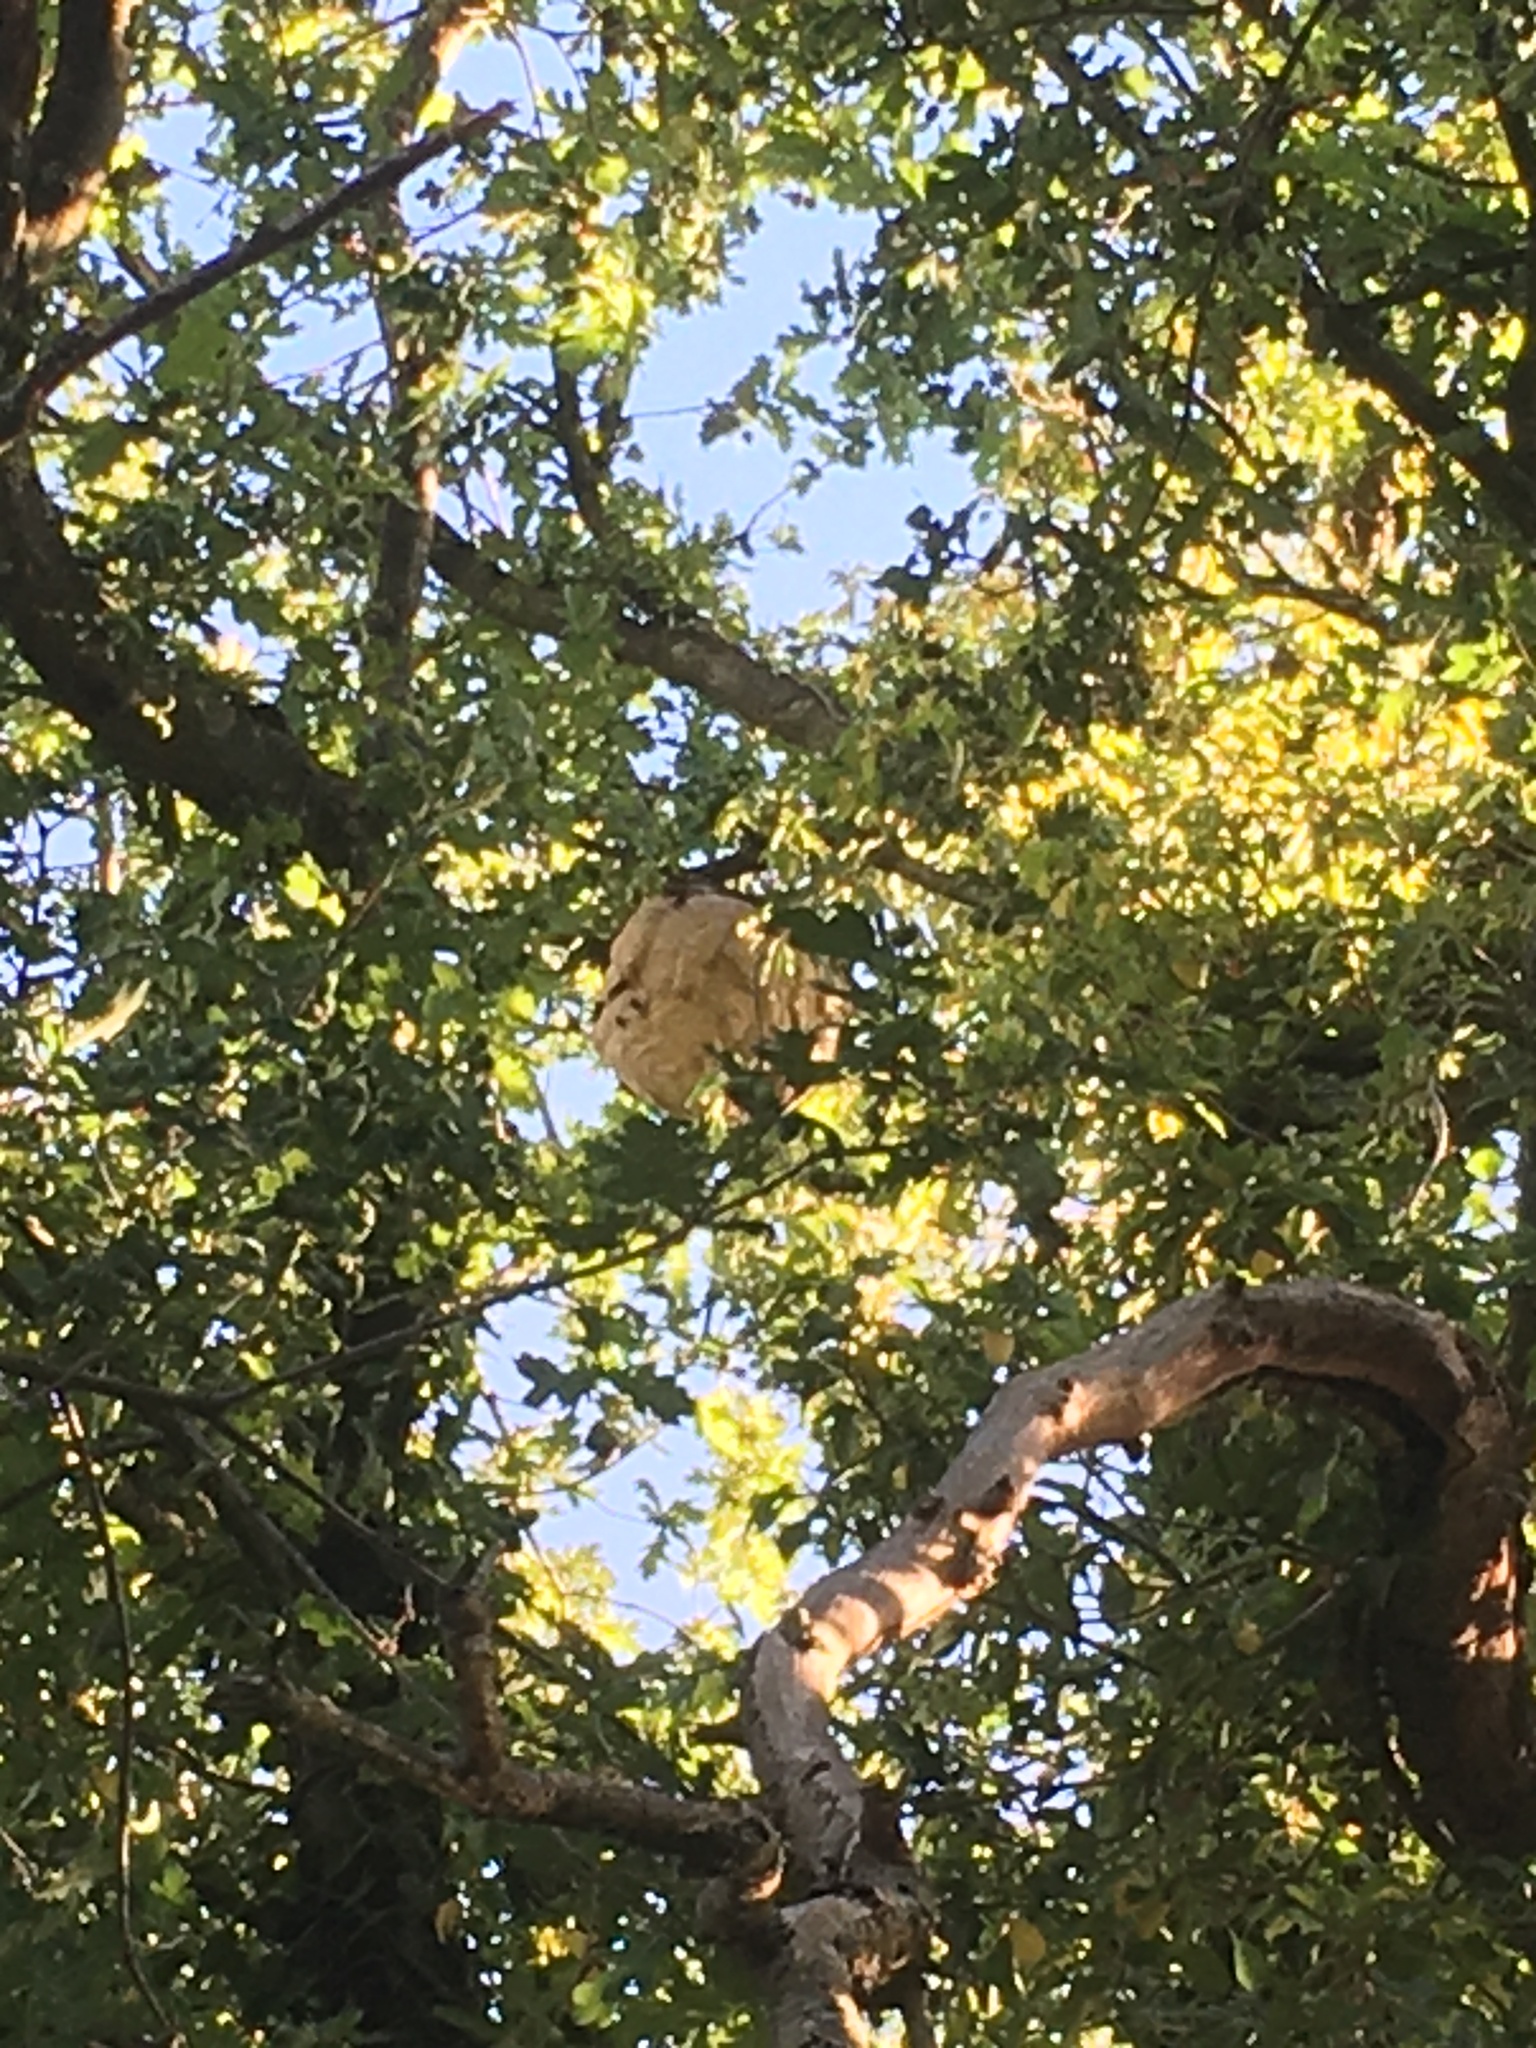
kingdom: Animalia
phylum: Arthropoda
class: Insecta
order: Hymenoptera
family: Vespidae
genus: Vespa
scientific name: Vespa velutina
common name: Asian hornet
